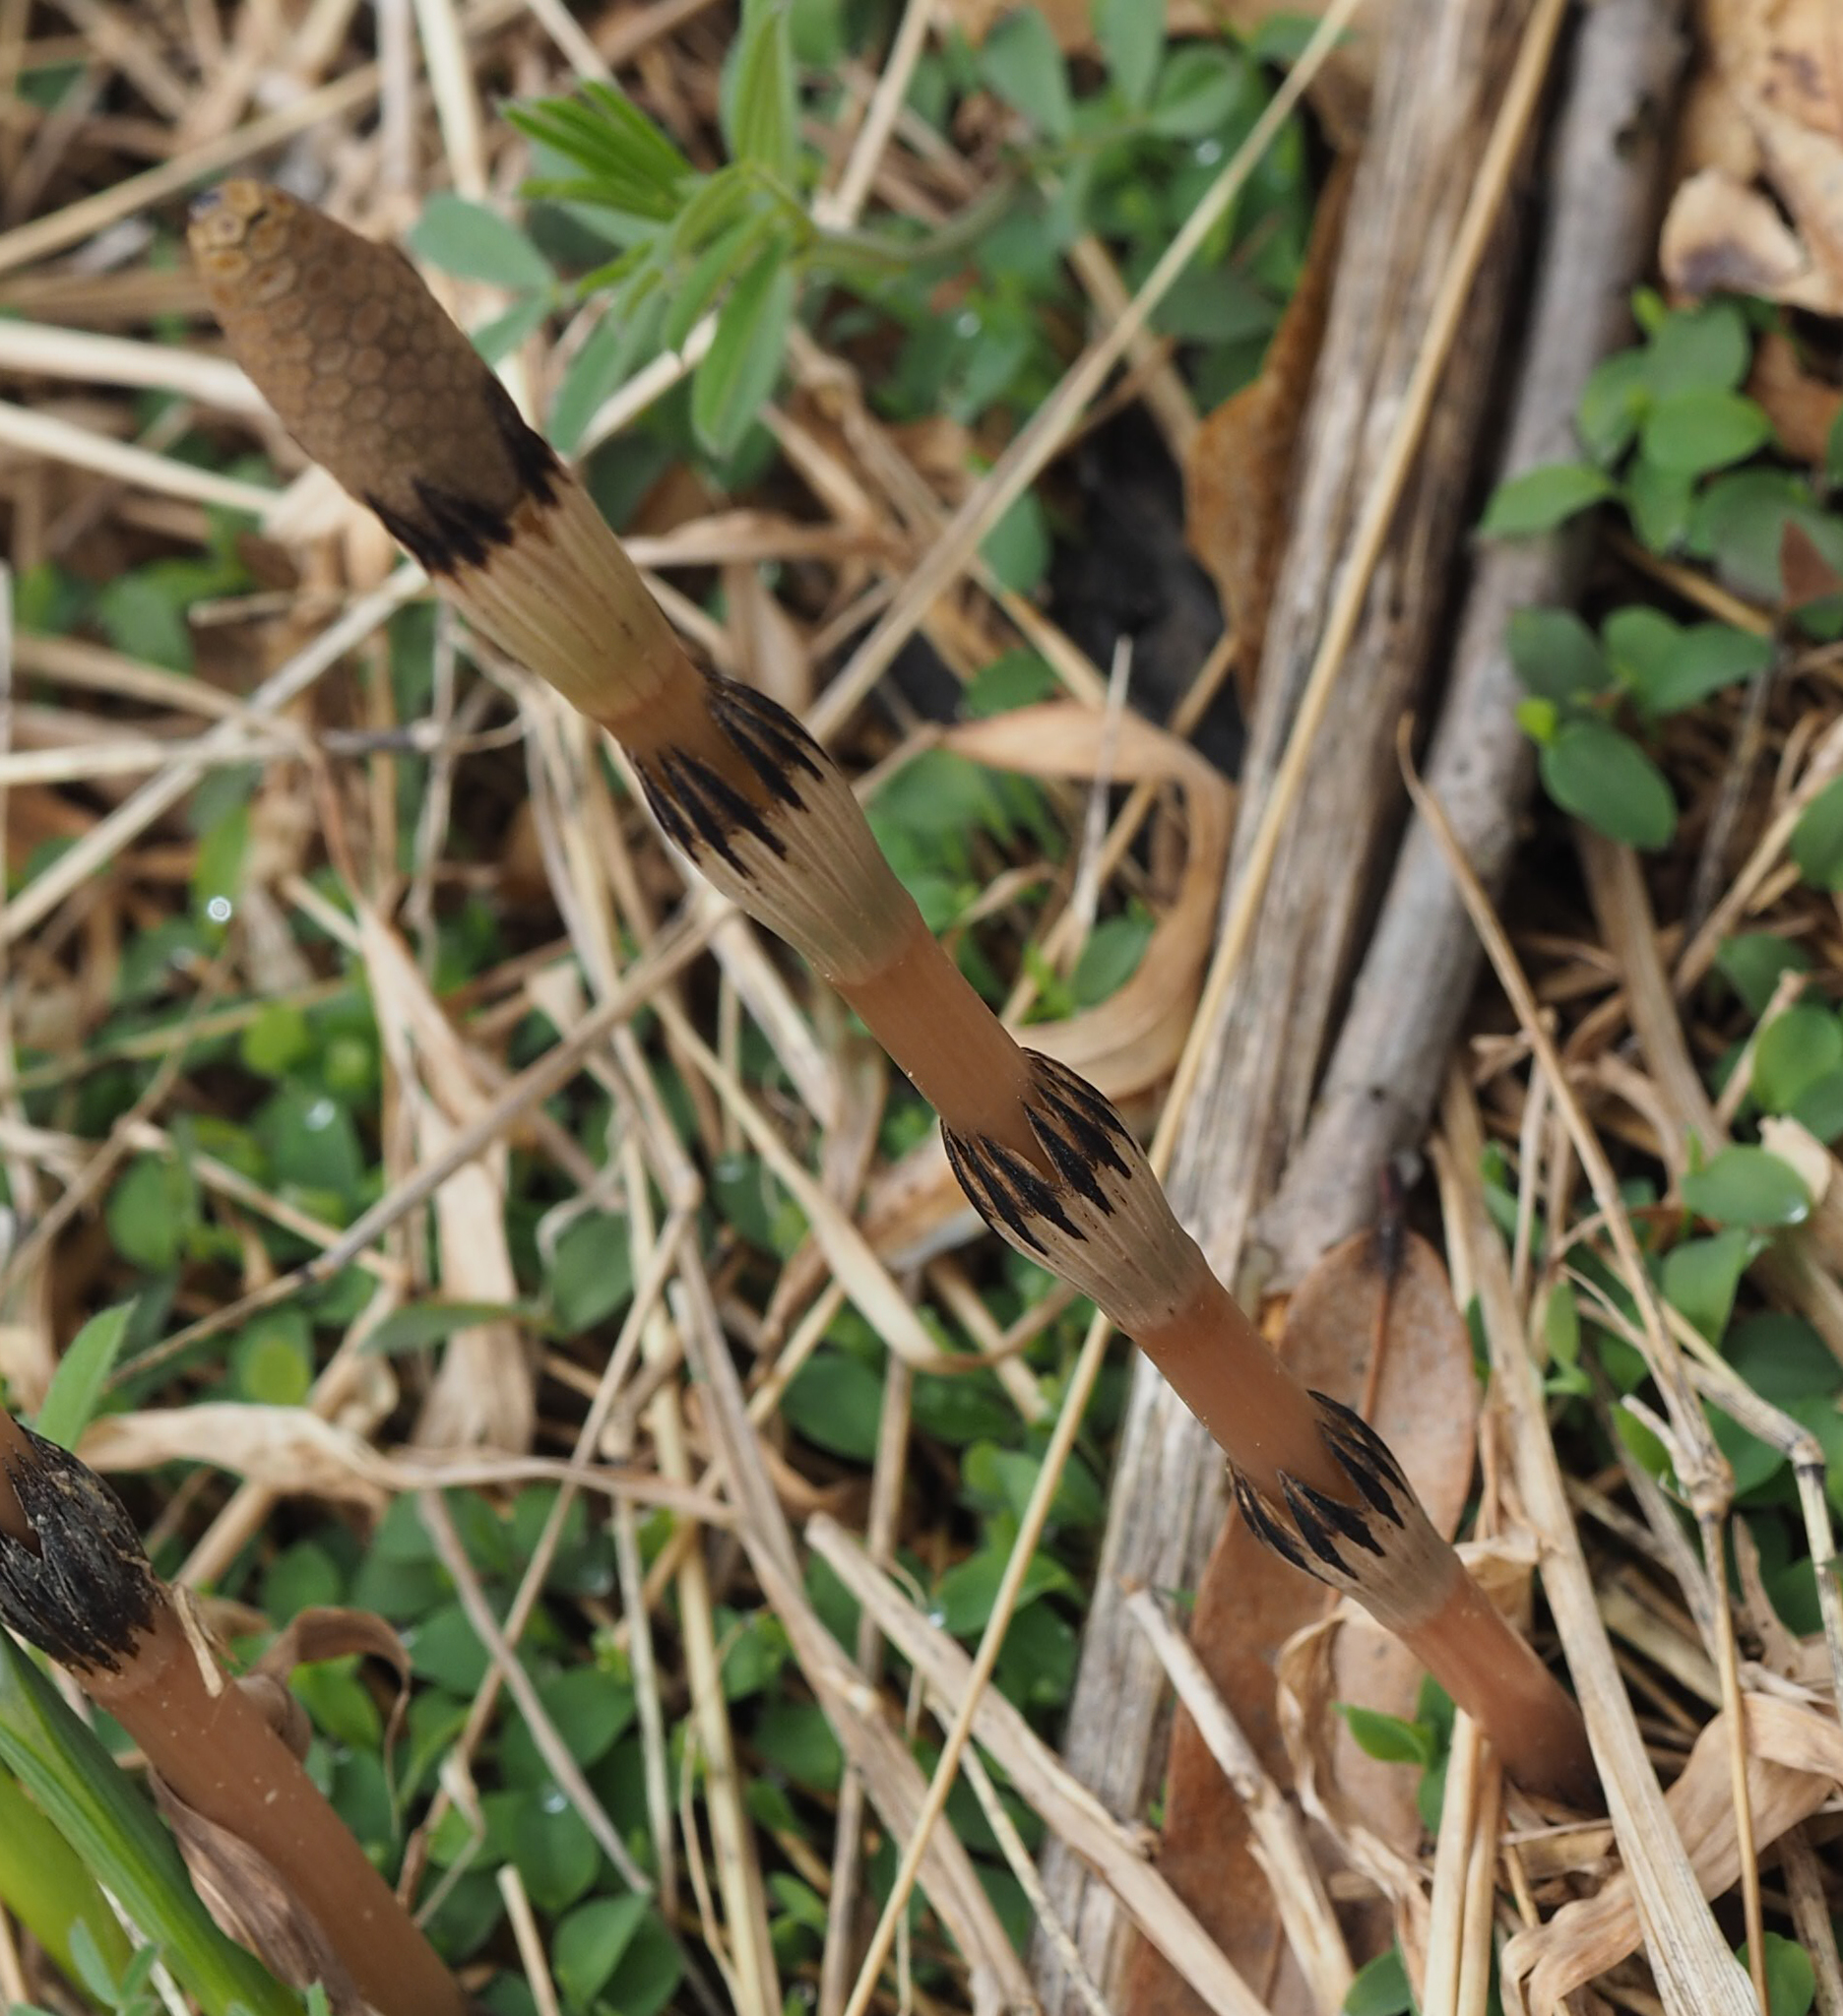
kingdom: Plantae
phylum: Tracheophyta
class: Polypodiopsida
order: Equisetales
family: Equisetaceae
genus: Equisetum
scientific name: Equisetum arvense
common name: Field horsetail
